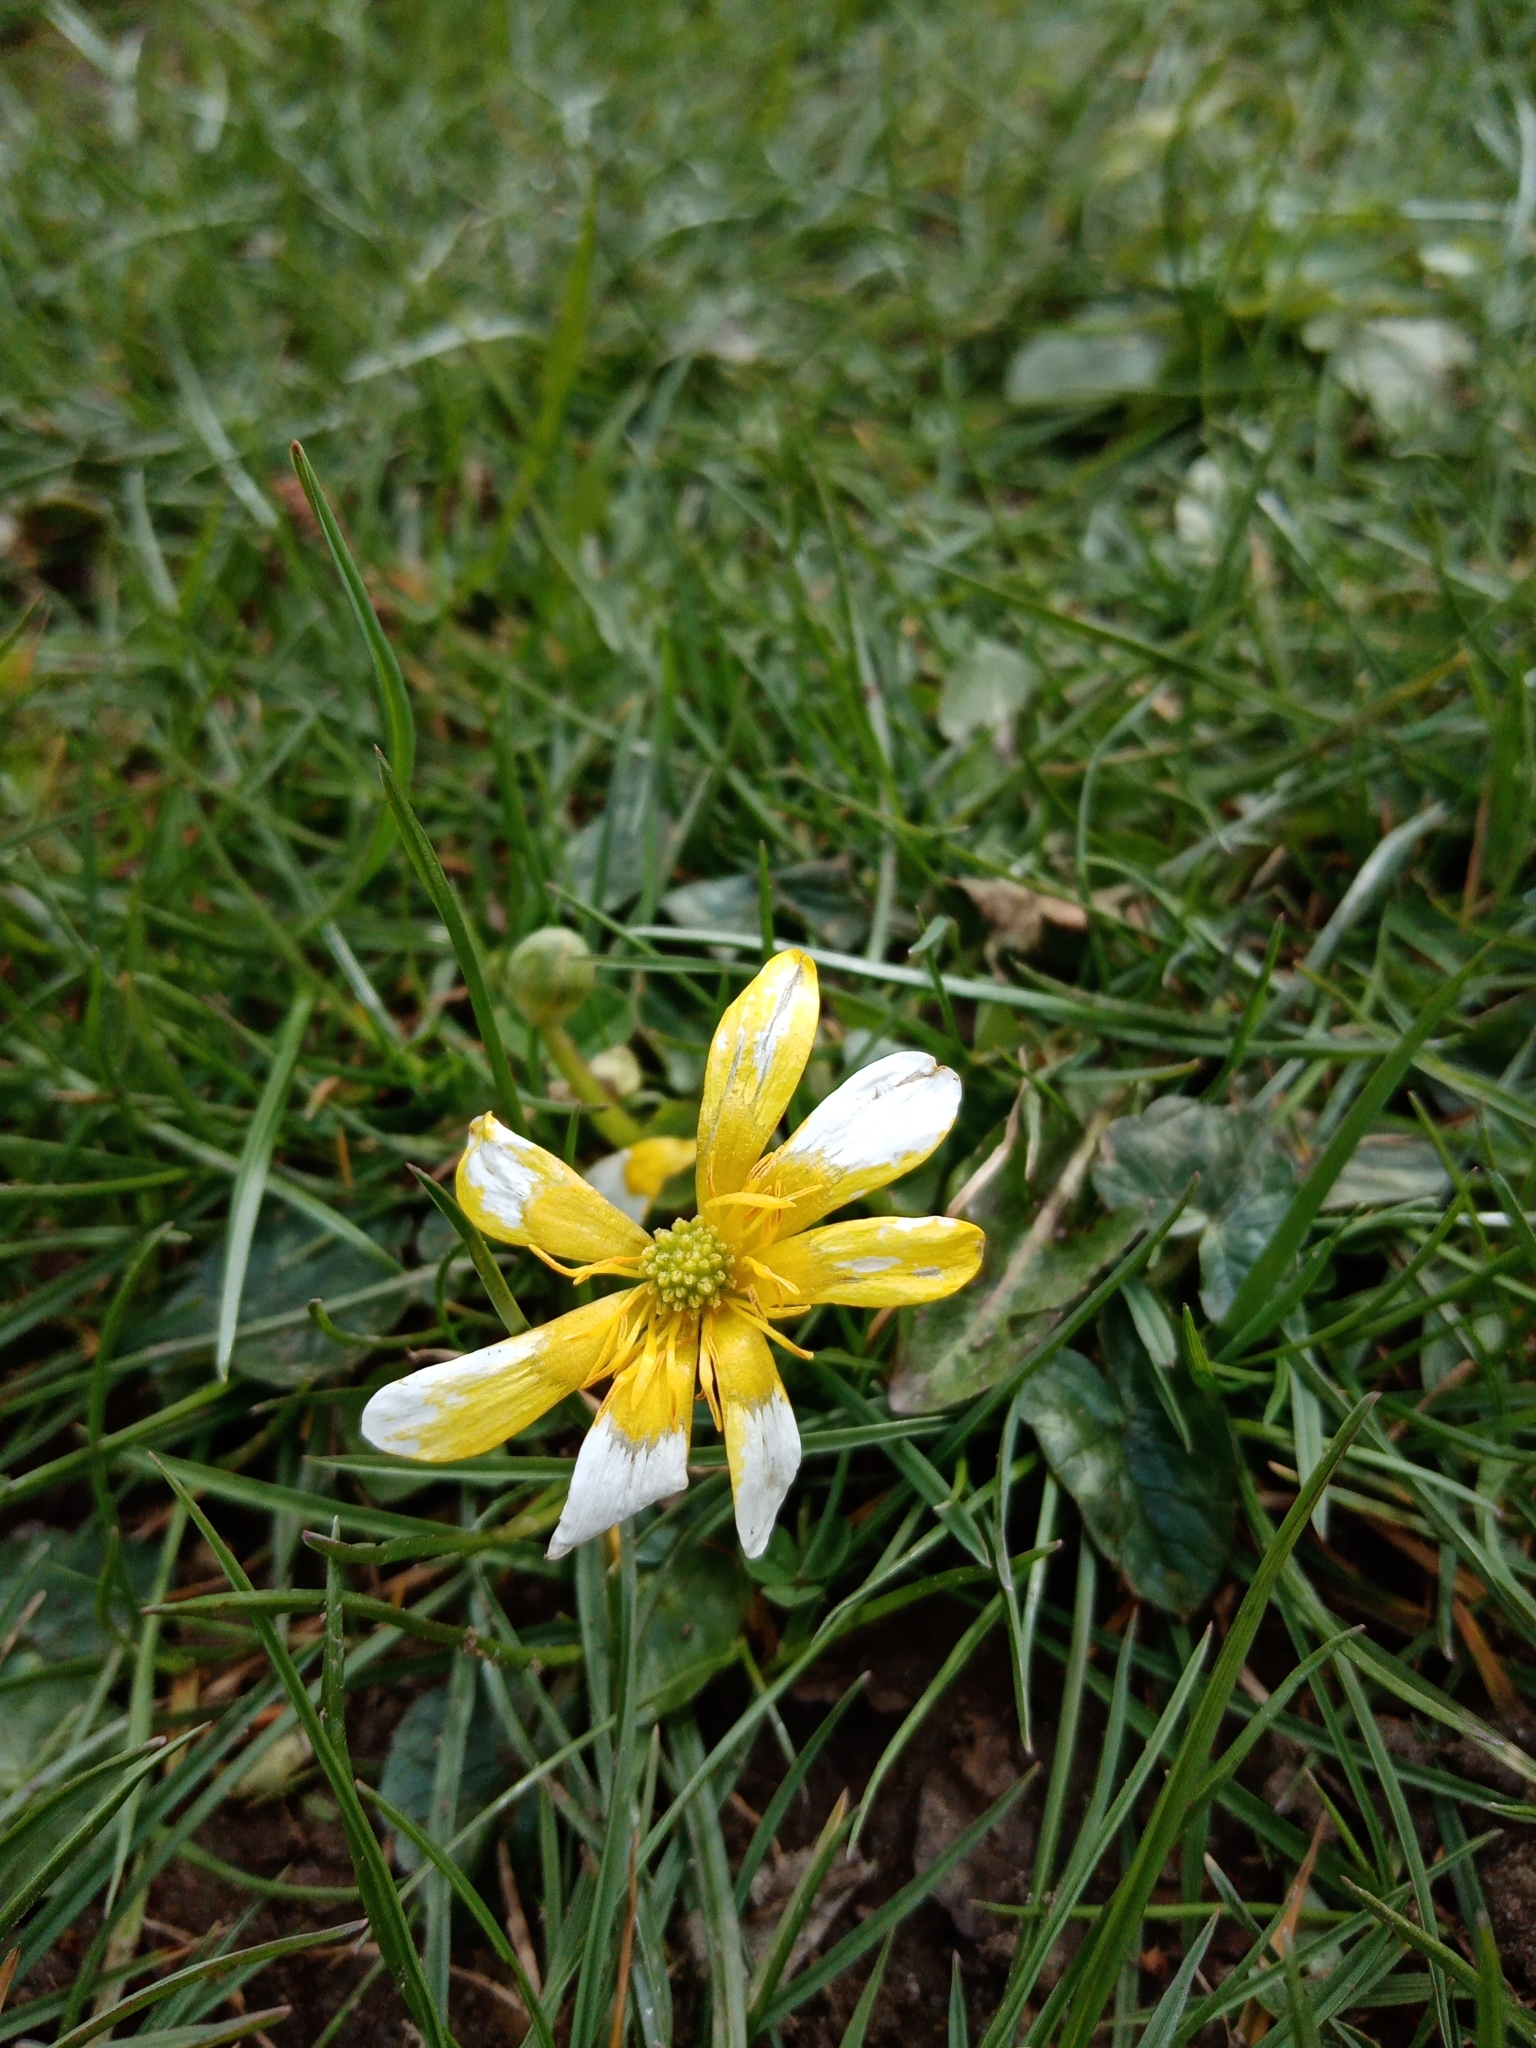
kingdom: Plantae
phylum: Tracheophyta
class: Magnoliopsida
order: Ranunculales
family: Ranunculaceae
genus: Ficaria
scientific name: Ficaria verna
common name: Lesser celandine
